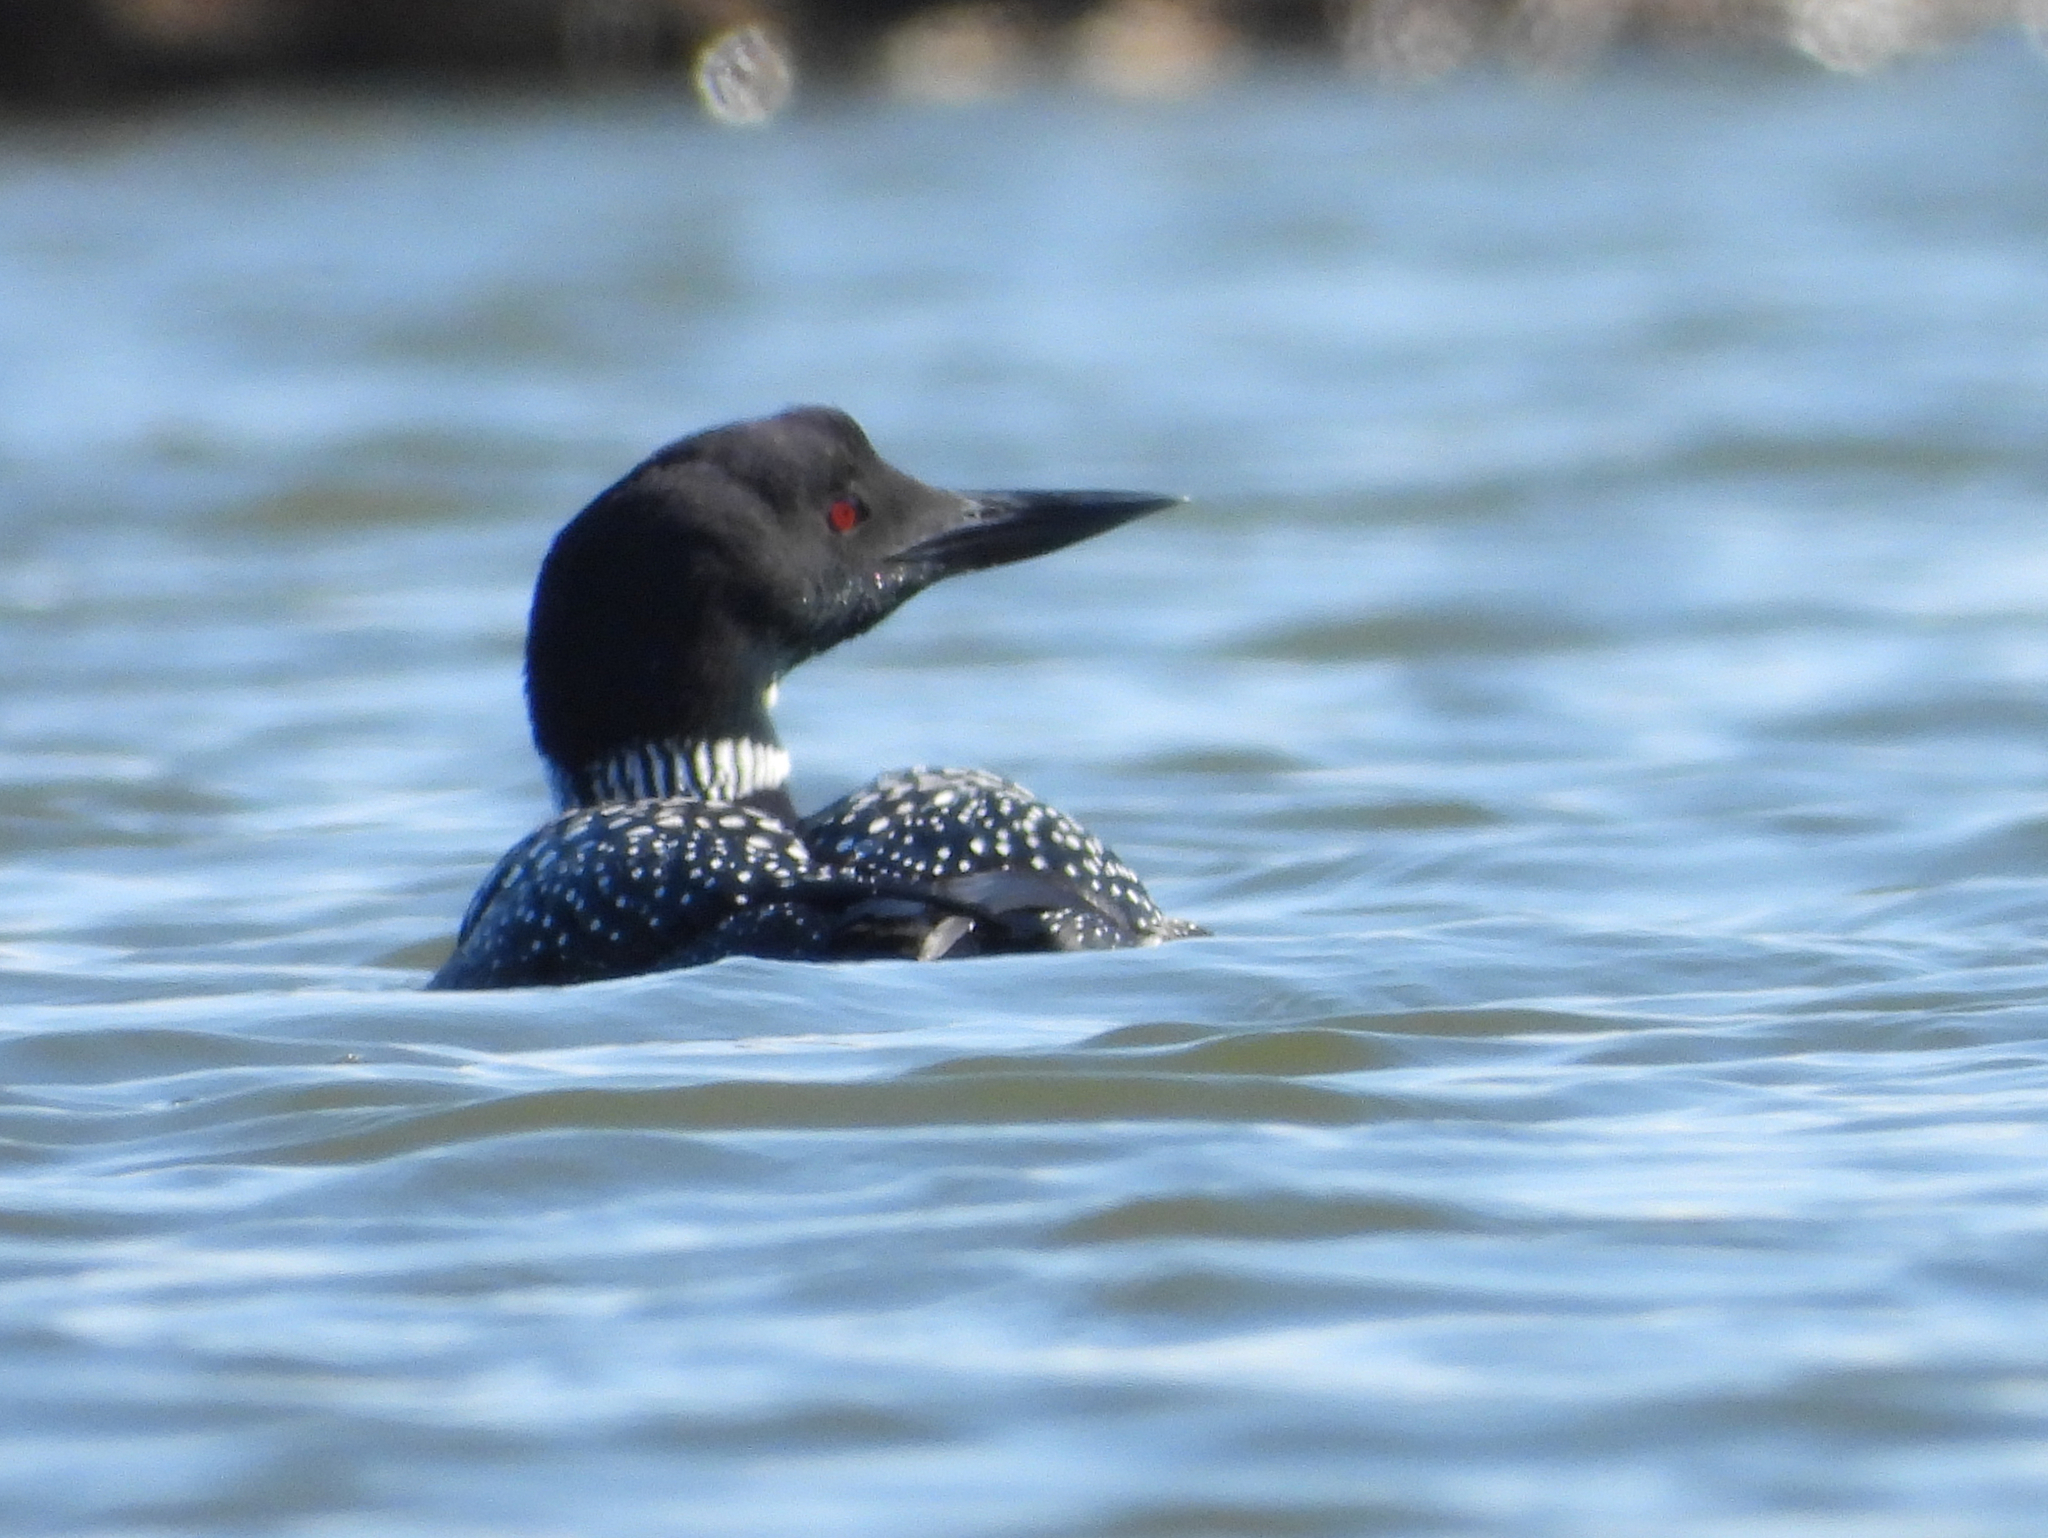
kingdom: Animalia
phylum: Chordata
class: Aves
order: Gaviiformes
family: Gaviidae
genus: Gavia
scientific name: Gavia immer
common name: Common loon
